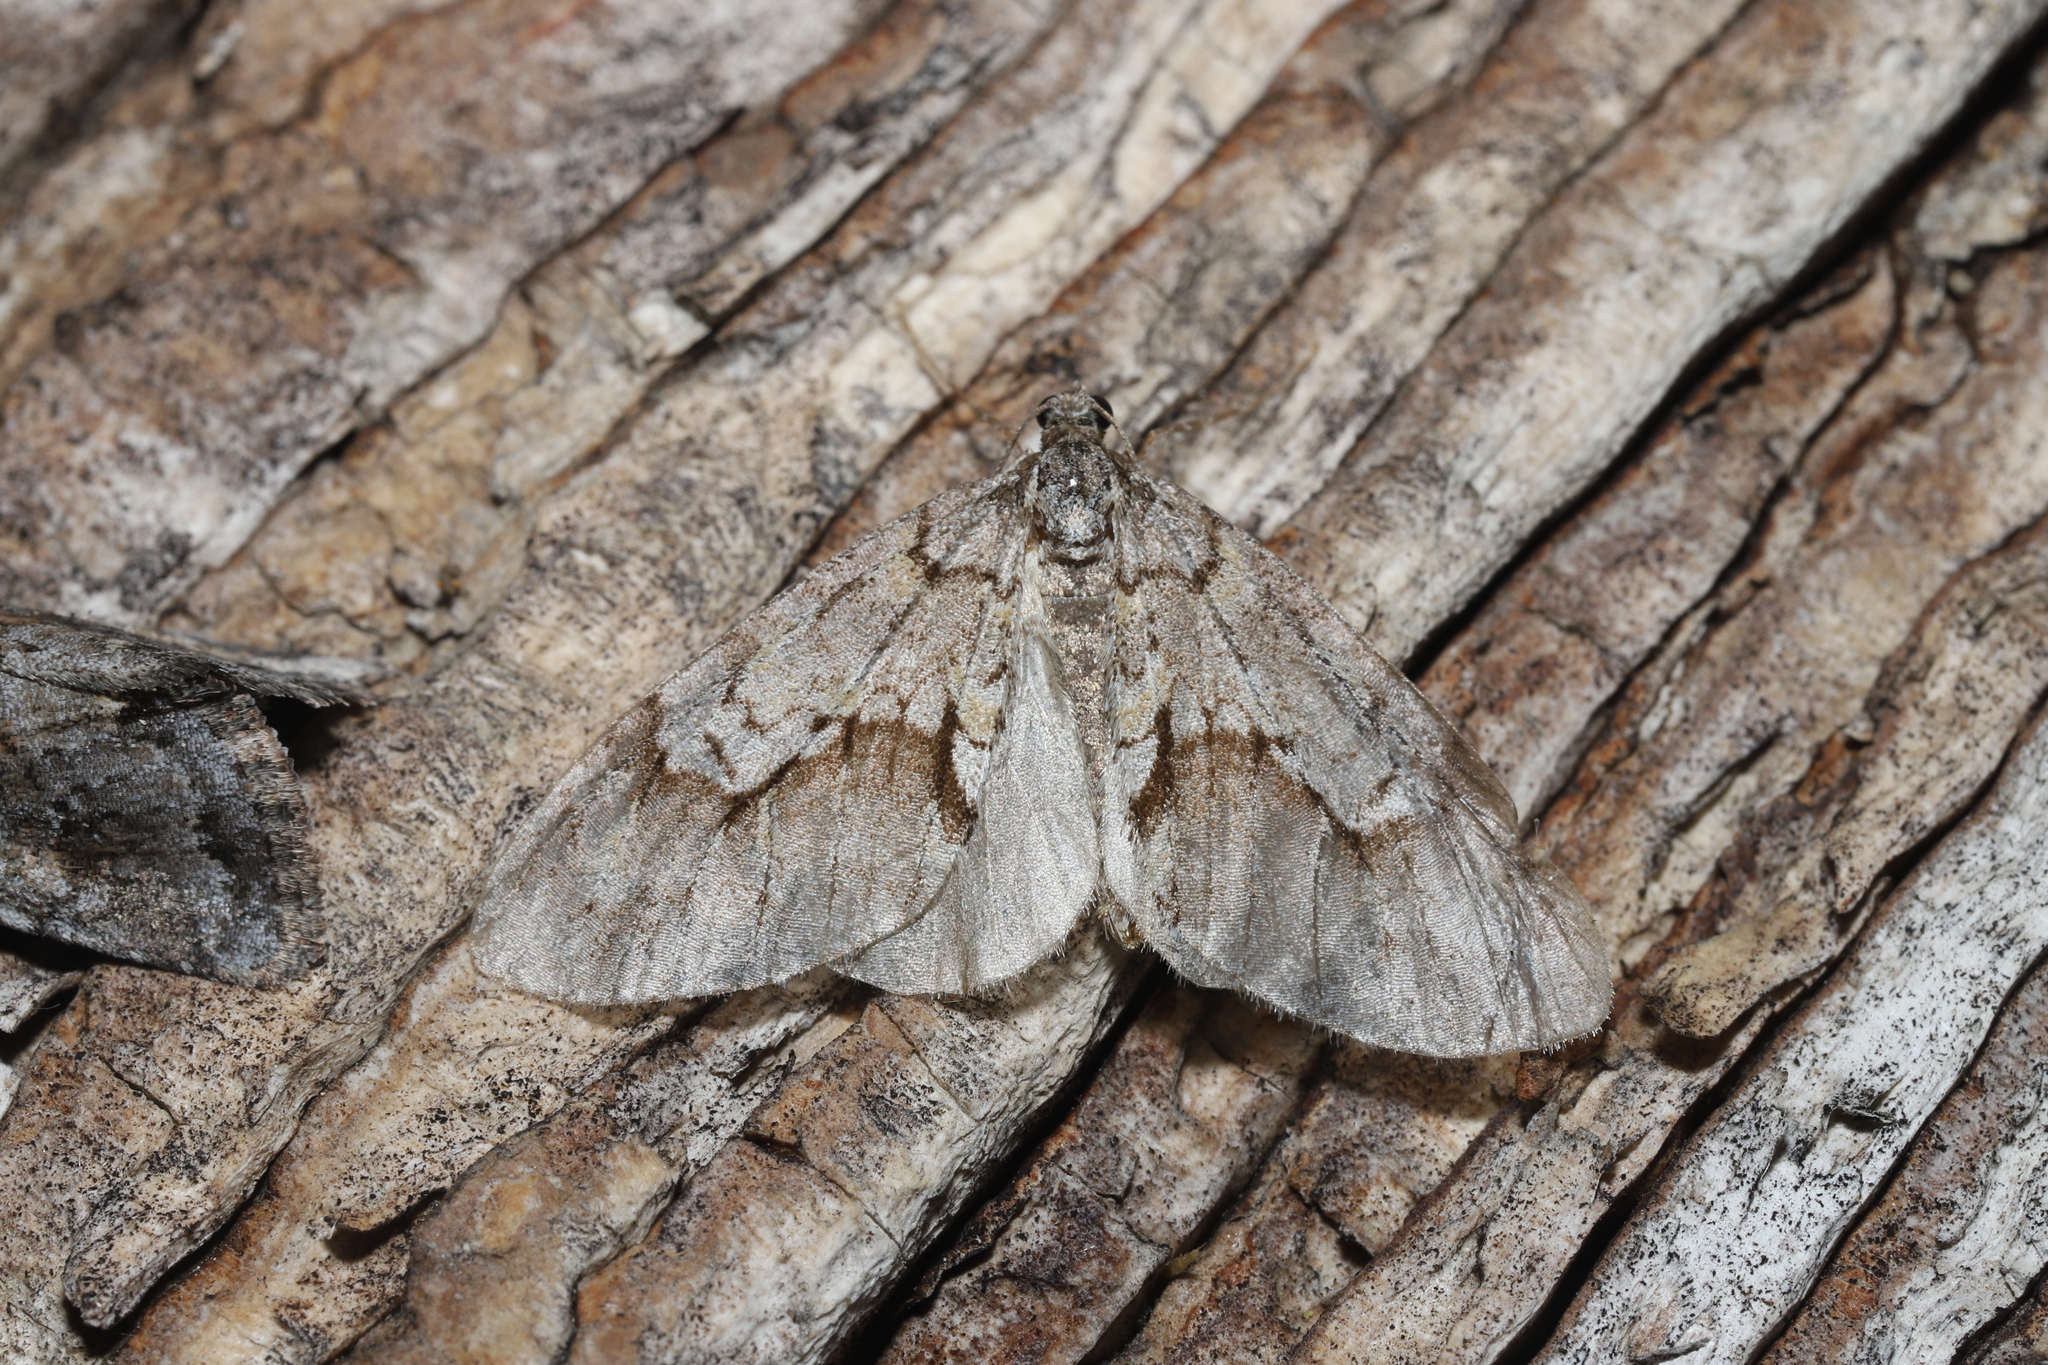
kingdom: Animalia
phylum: Arthropoda
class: Insecta
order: Lepidoptera
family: Geometridae
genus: Cladara
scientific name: Cladara limitaria
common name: Mottled gray carpet
